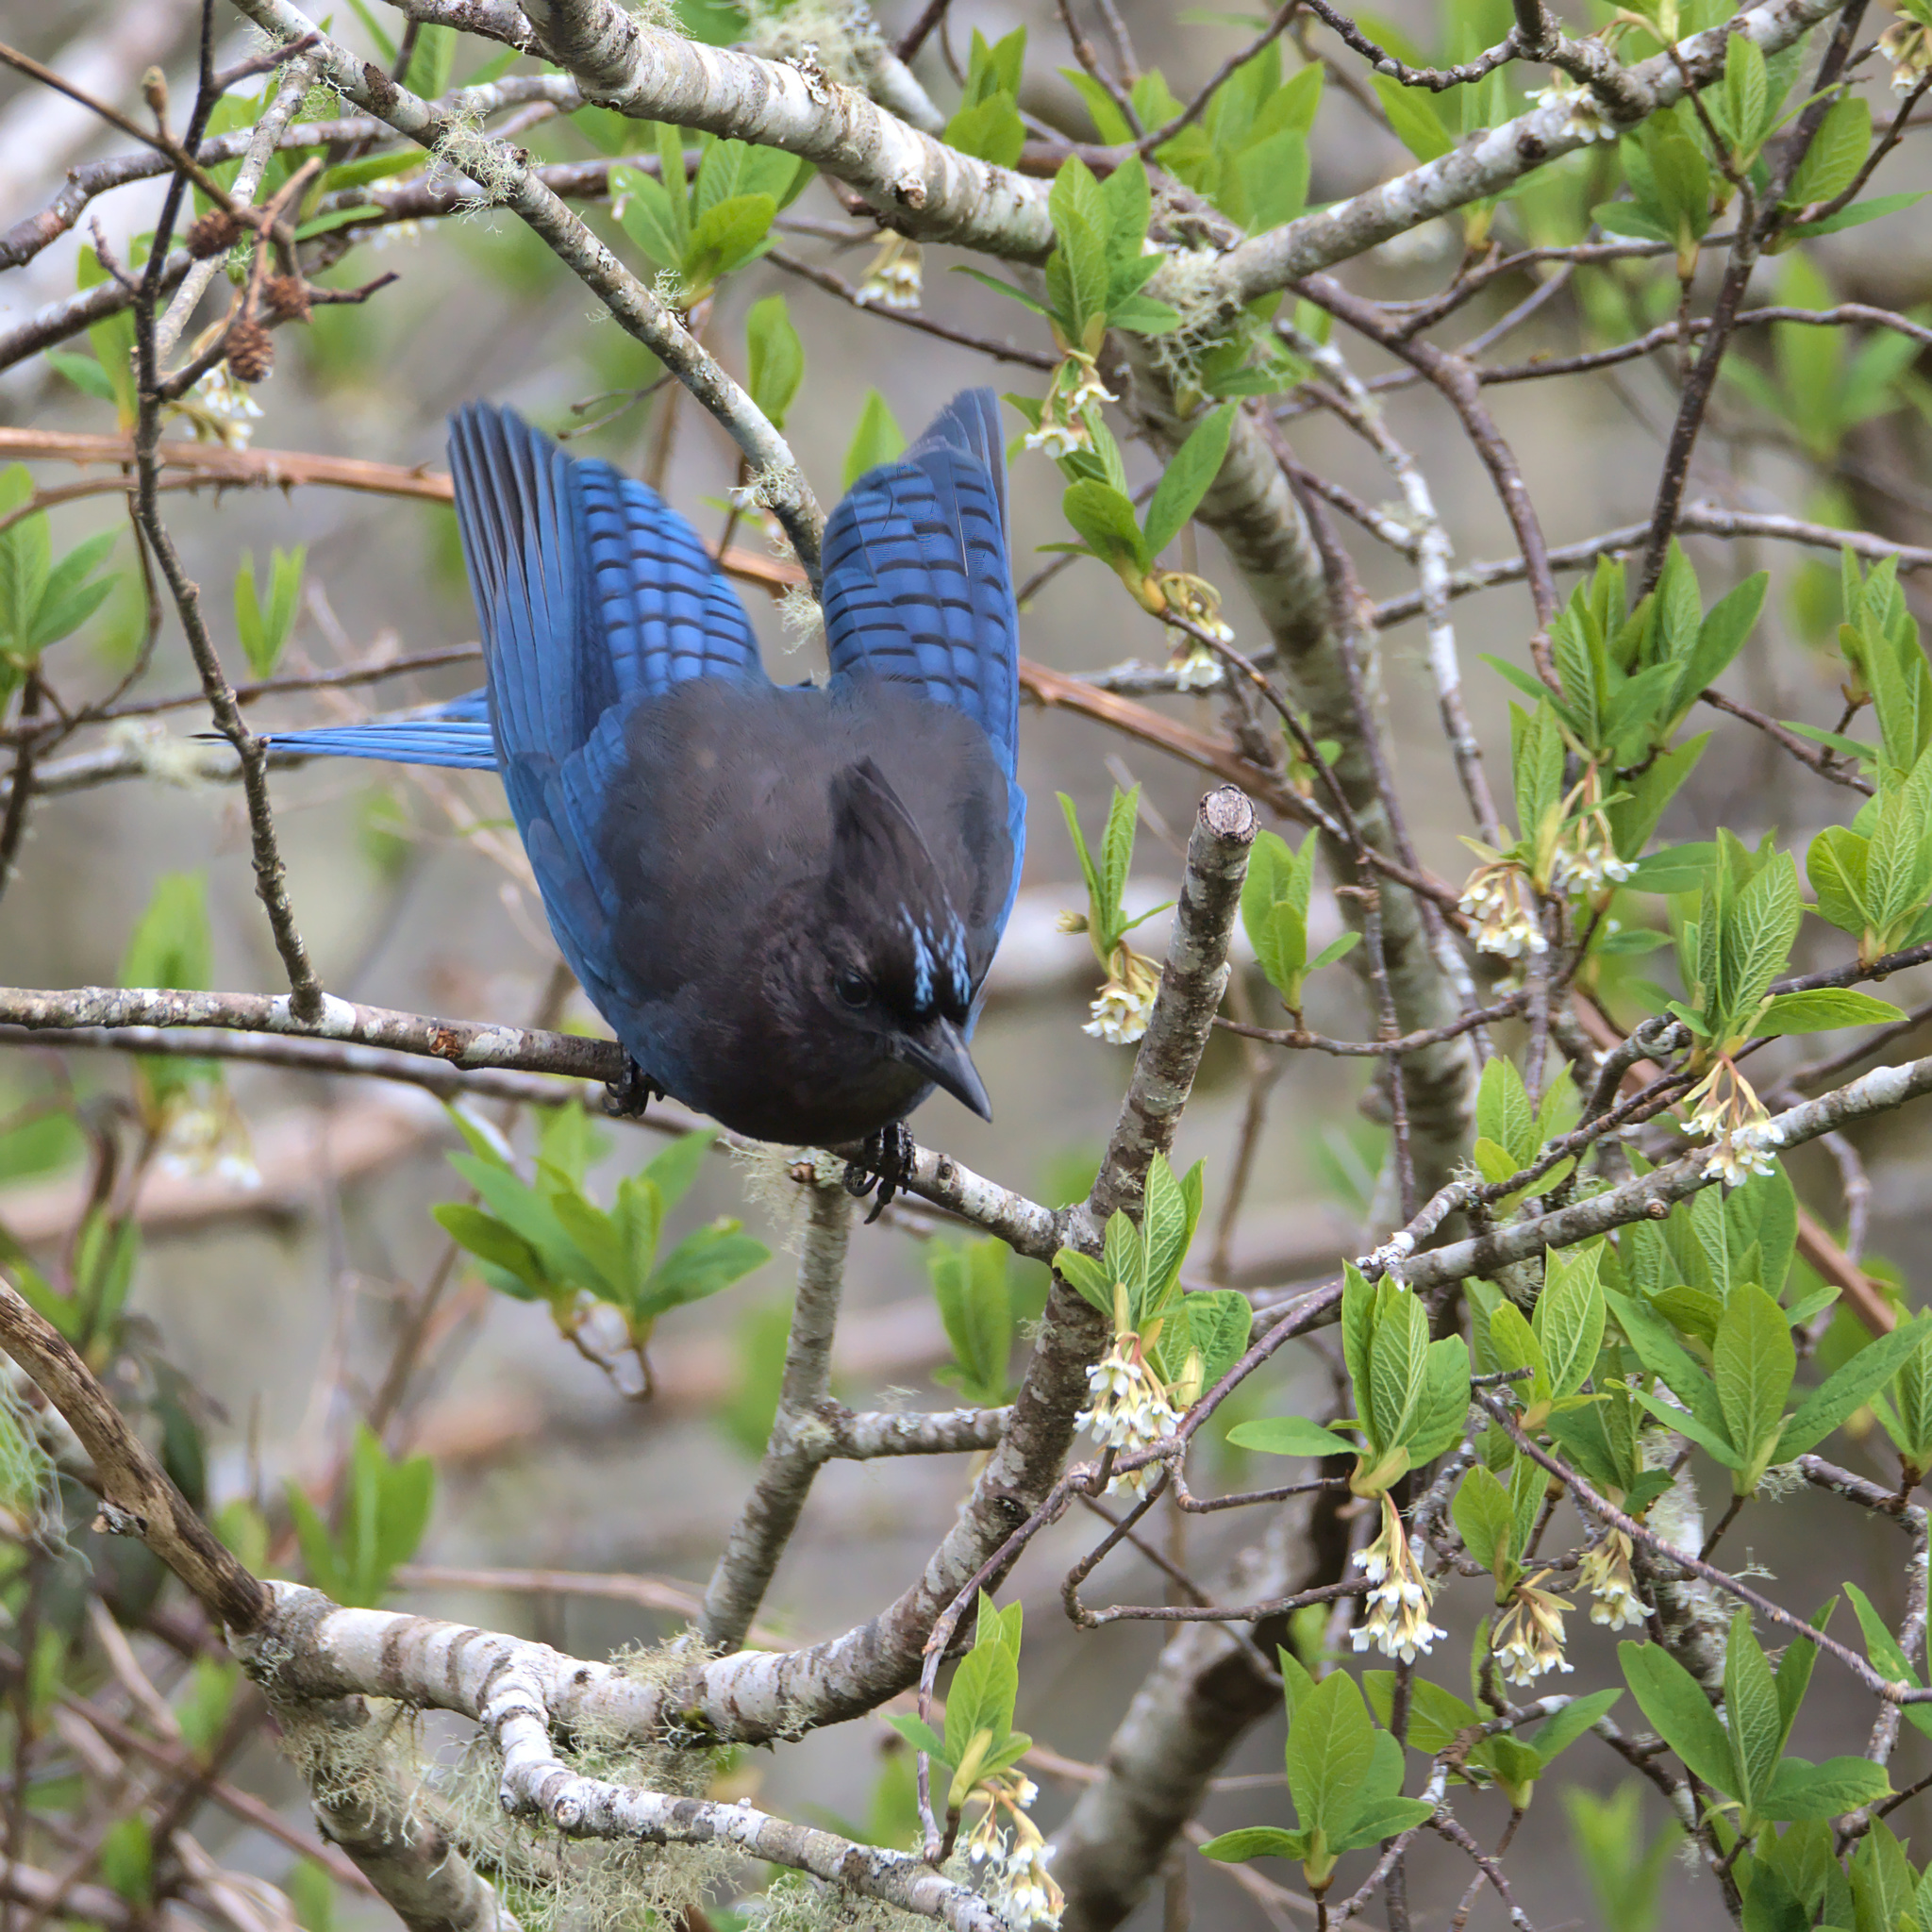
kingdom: Animalia
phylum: Chordata
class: Aves
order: Passeriformes
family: Corvidae
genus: Cyanocitta
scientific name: Cyanocitta stelleri
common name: Steller's jay
